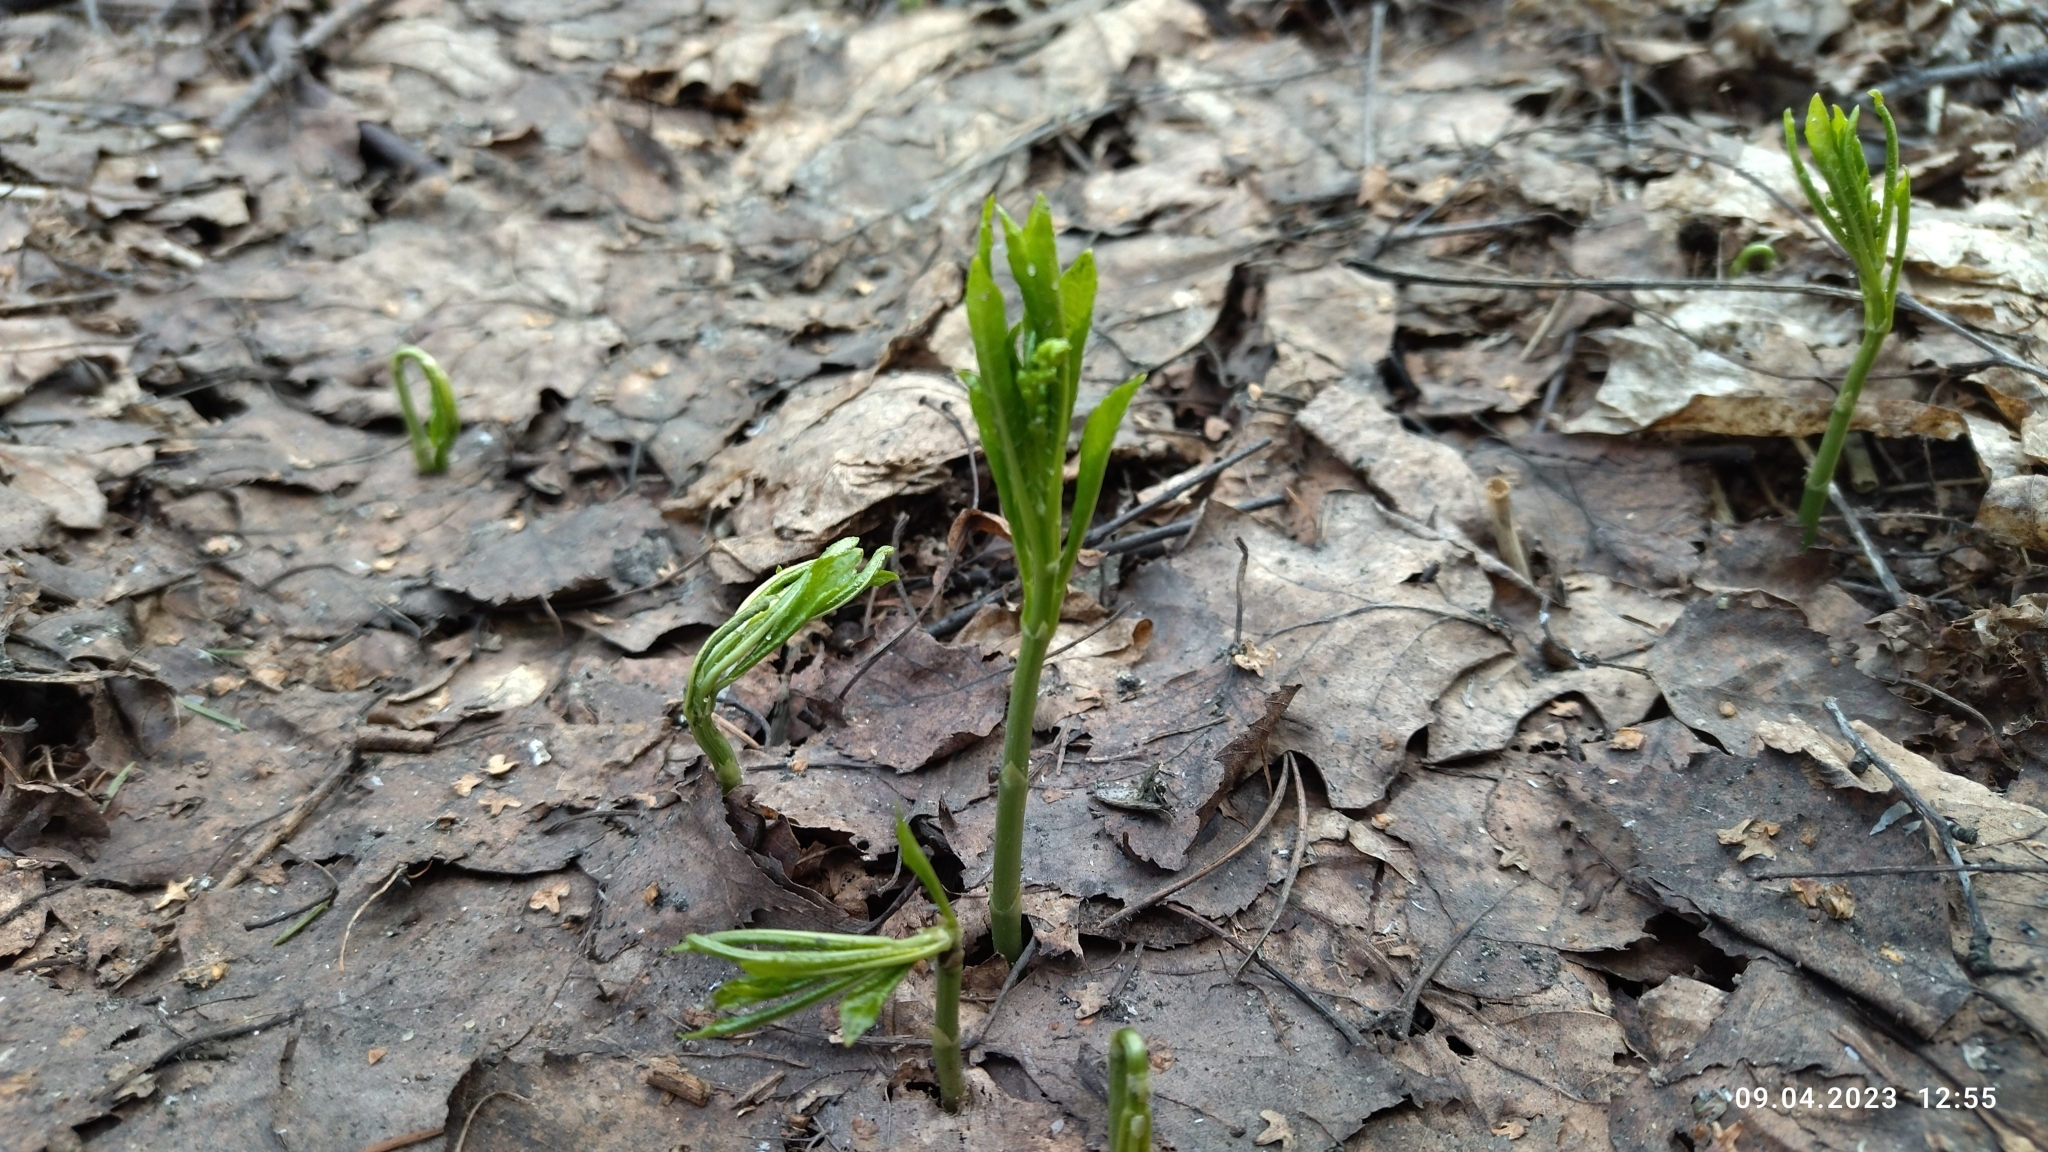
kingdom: Plantae
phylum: Tracheophyta
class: Magnoliopsida
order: Malpighiales
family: Euphorbiaceae
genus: Mercurialis
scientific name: Mercurialis perennis
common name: Dog mercury
